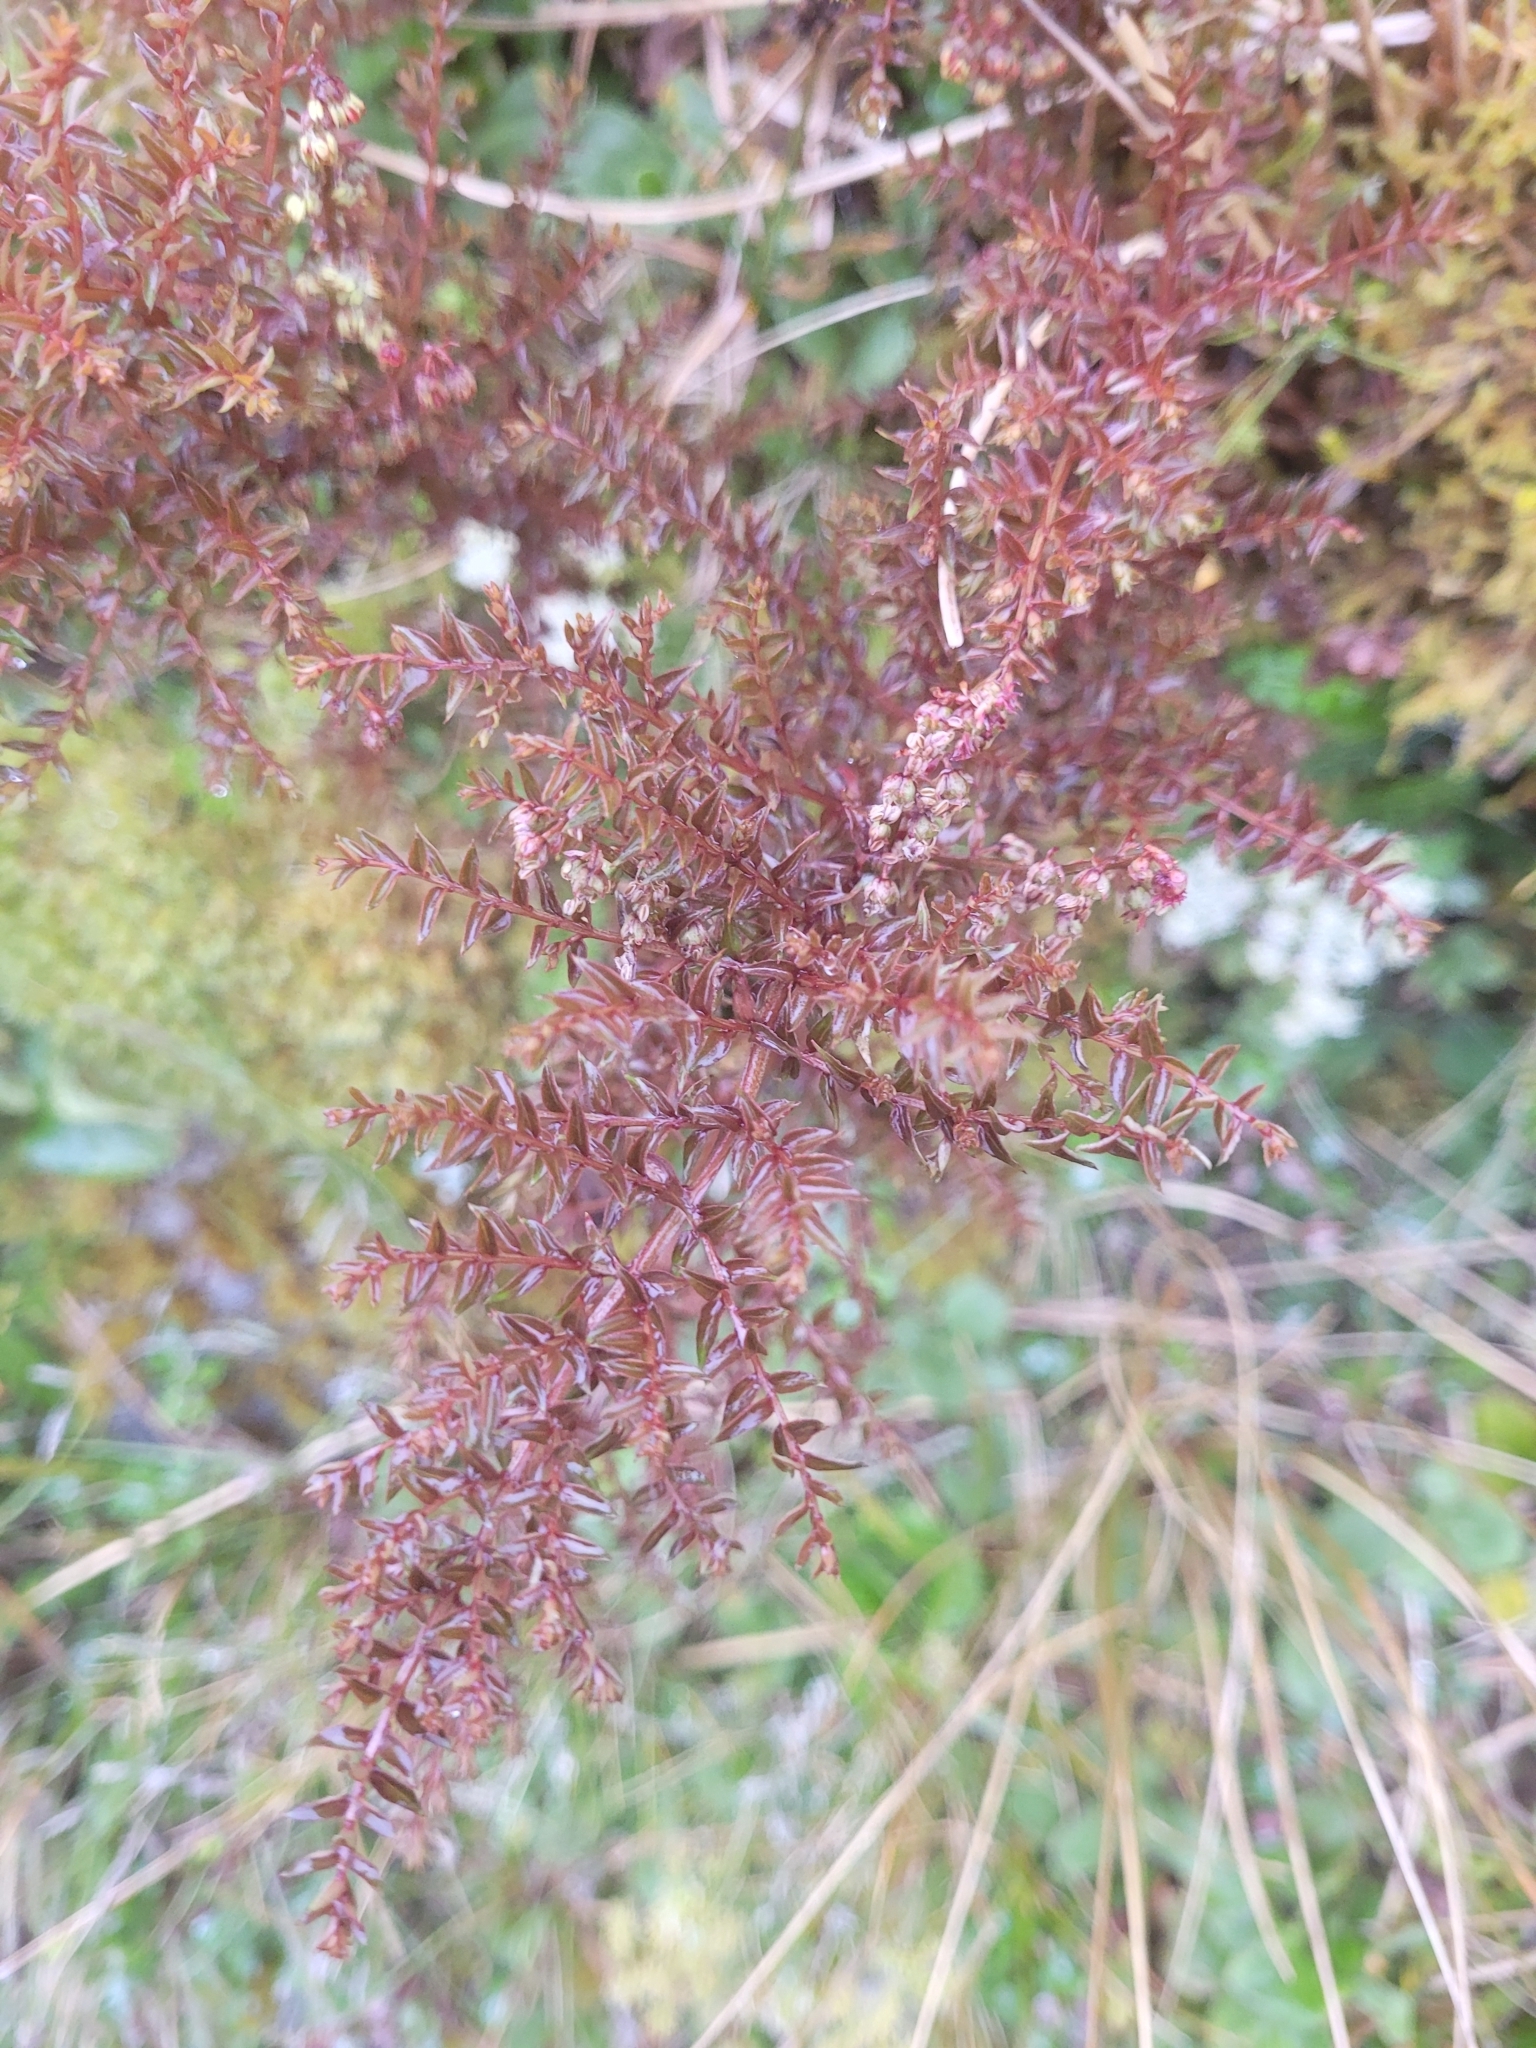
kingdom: Plantae
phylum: Tracheophyta
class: Magnoliopsida
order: Cucurbitales
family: Coriariaceae
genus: Coriaria
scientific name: Coriaria plumosa
